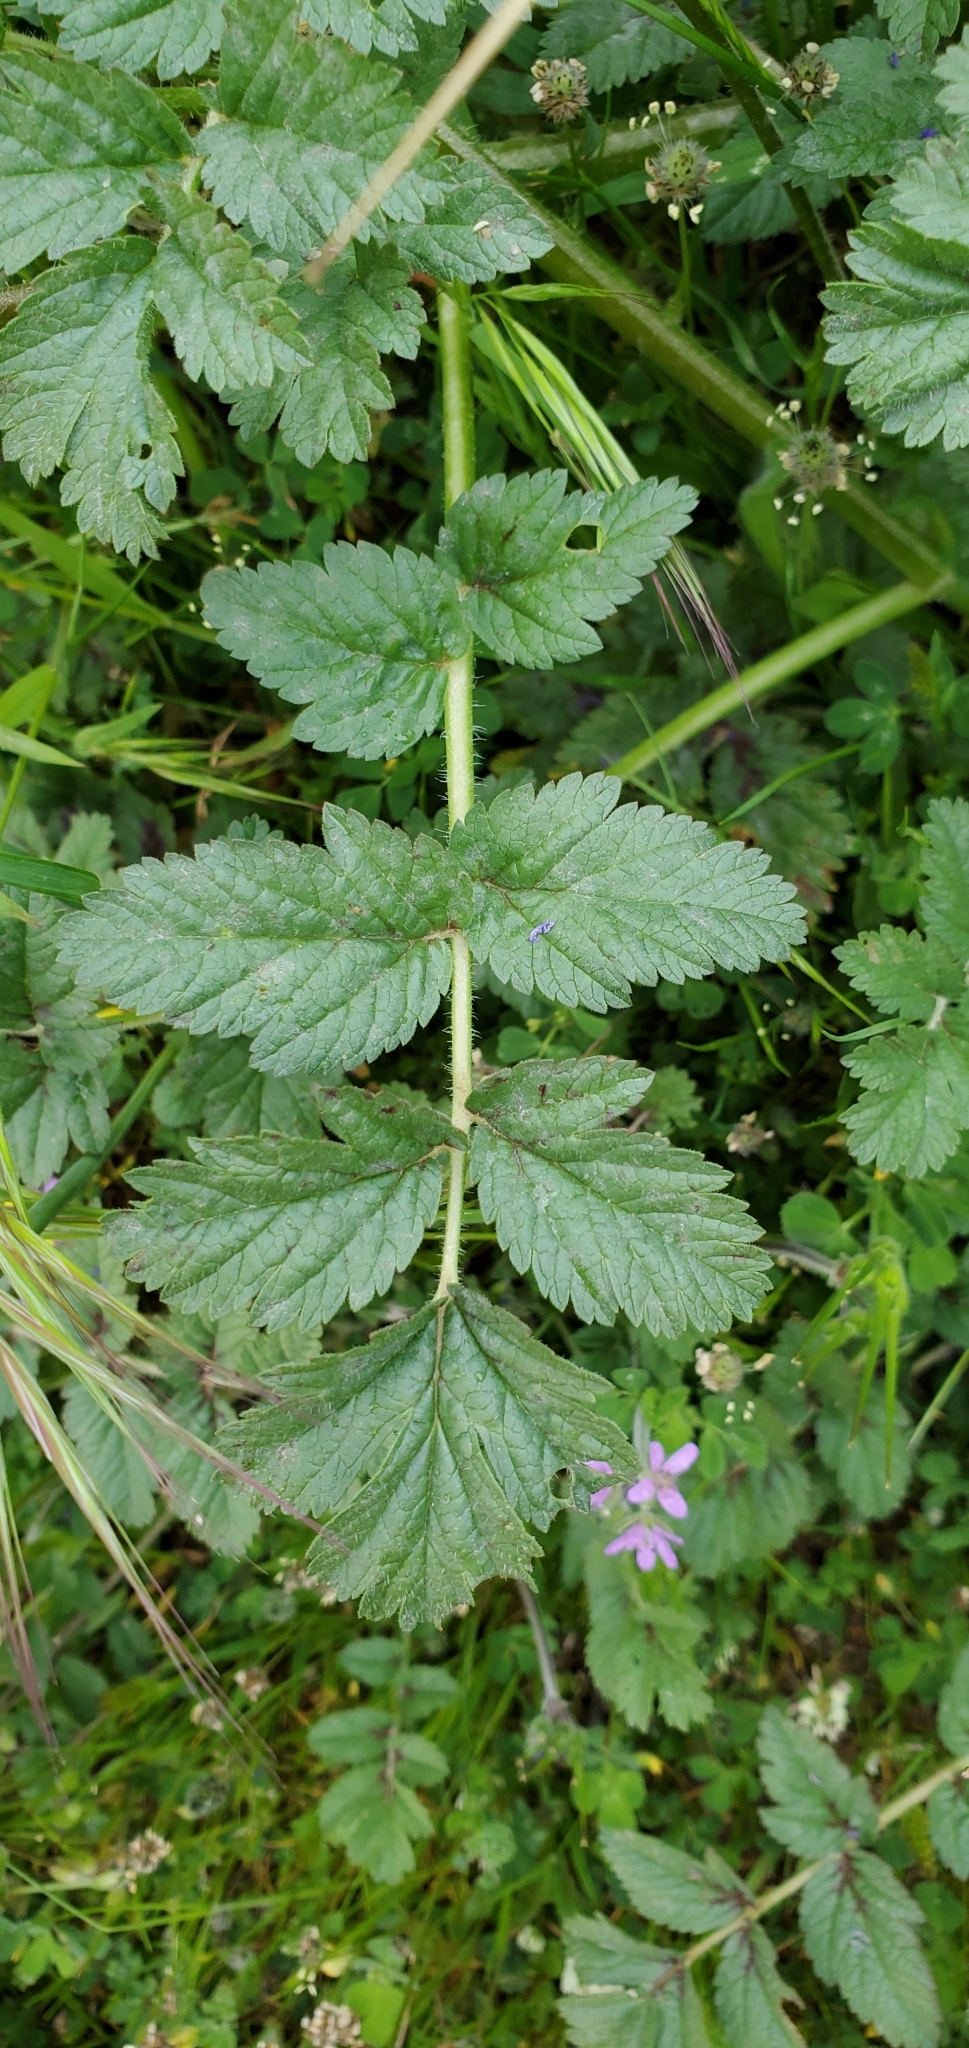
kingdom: Plantae
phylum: Tracheophyta
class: Magnoliopsida
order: Geraniales
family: Geraniaceae
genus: Erodium
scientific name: Erodium moschatum
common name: Musk stork's-bill
